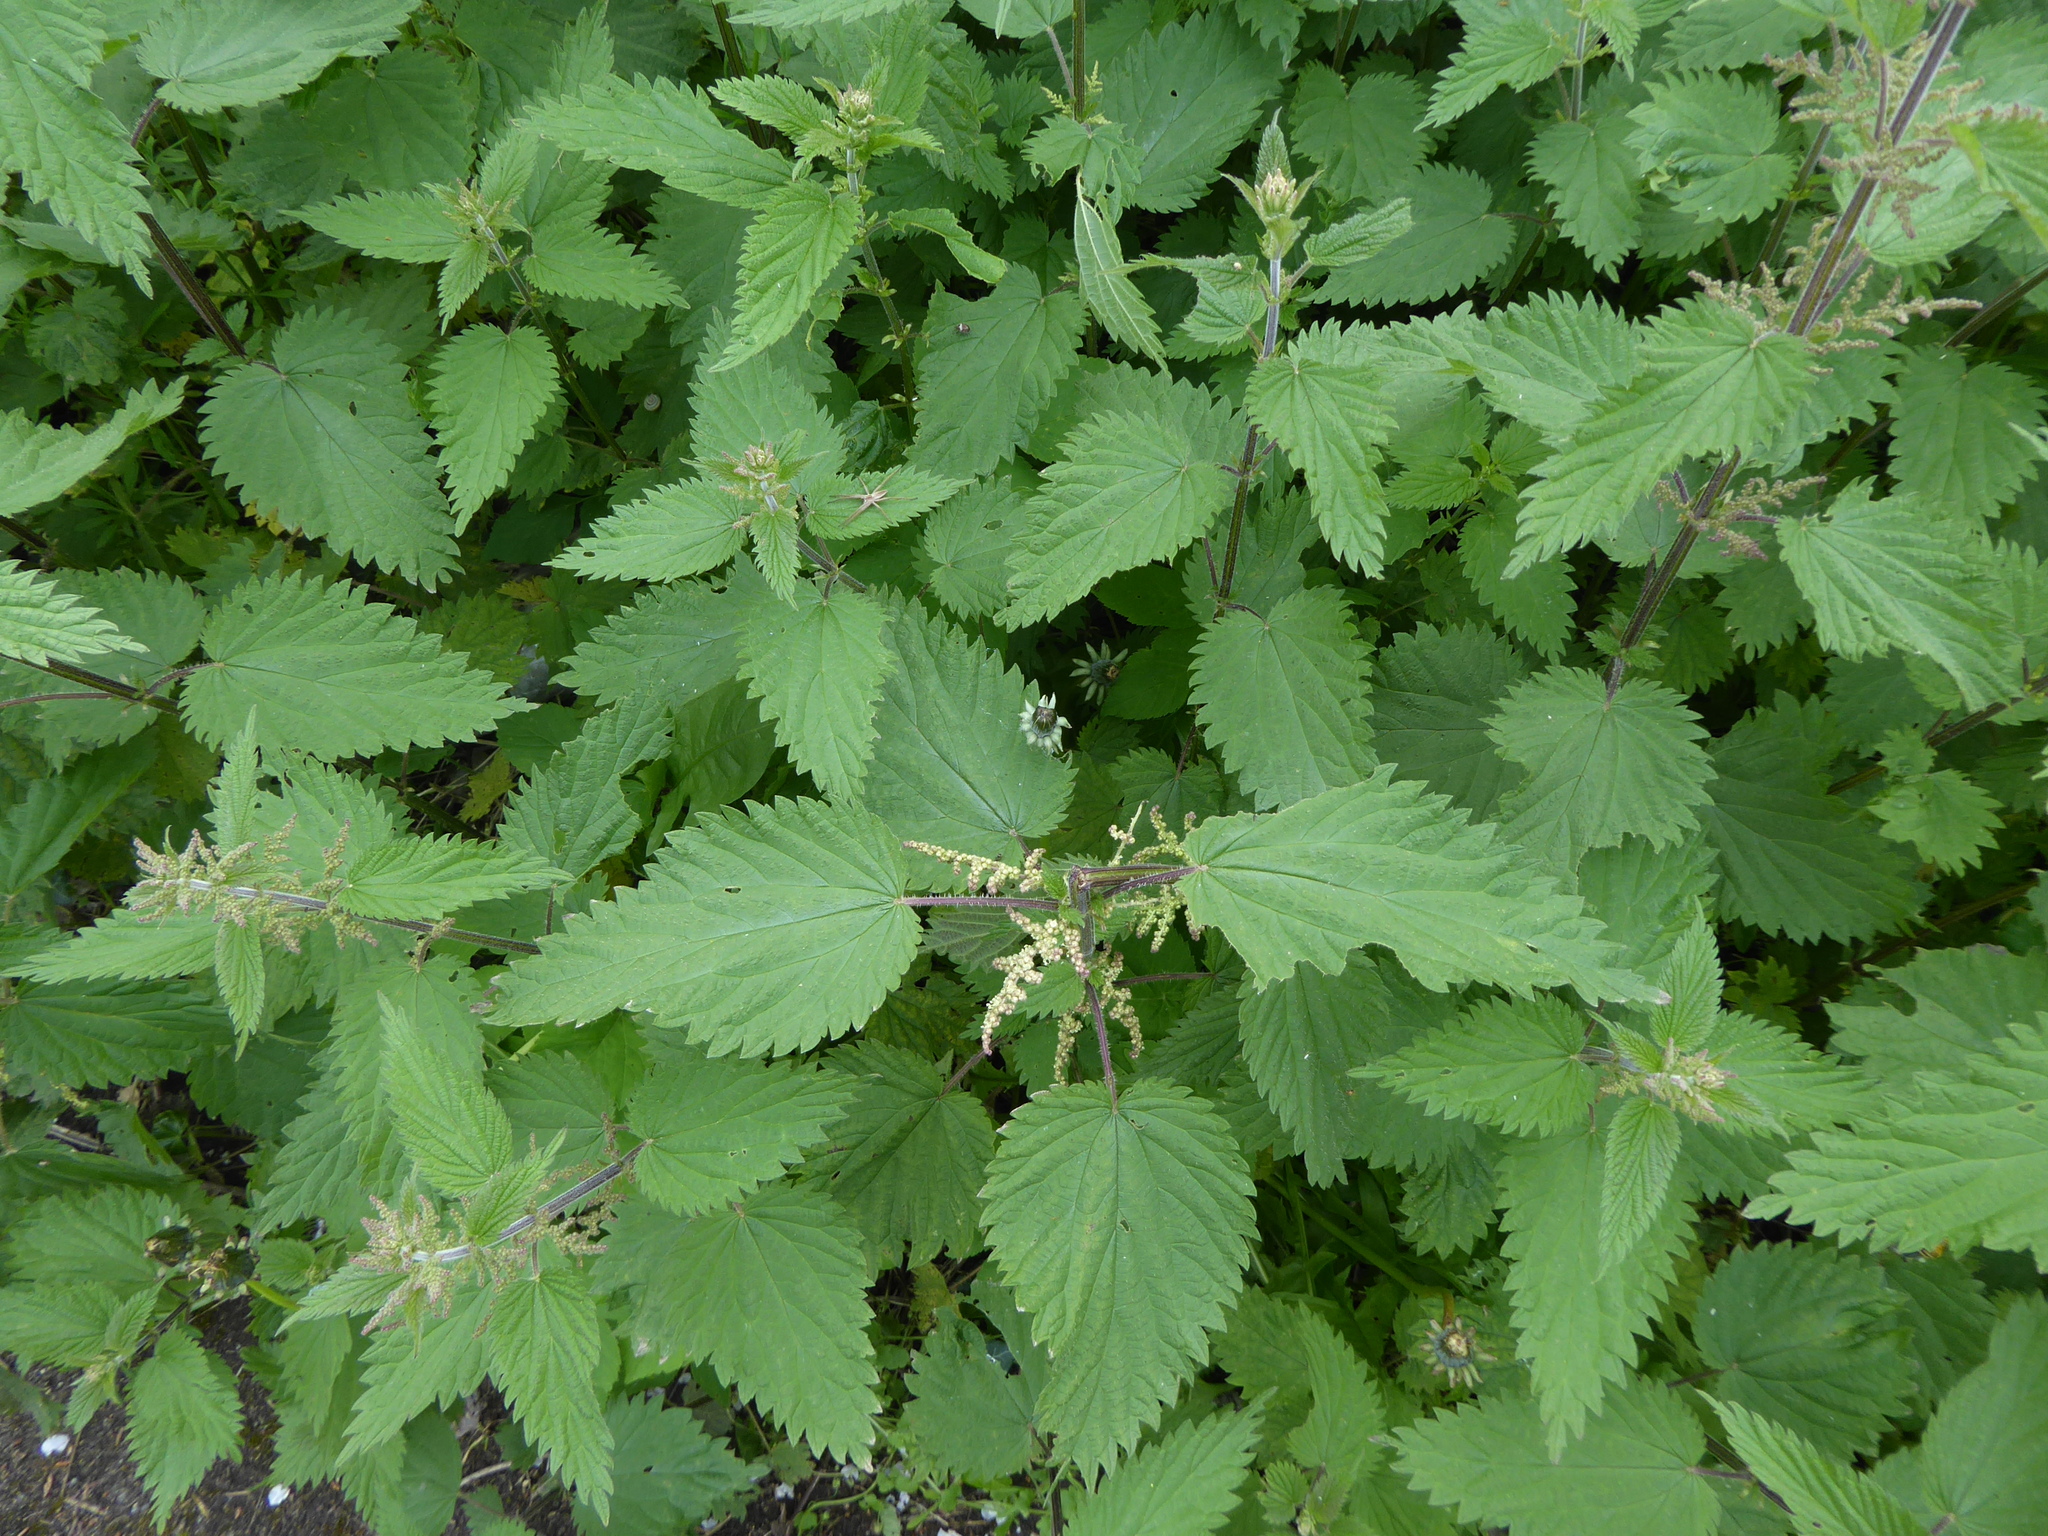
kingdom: Plantae
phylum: Tracheophyta
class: Magnoliopsida
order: Rosales
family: Urticaceae
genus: Urtica
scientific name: Urtica dioica
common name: Common nettle
